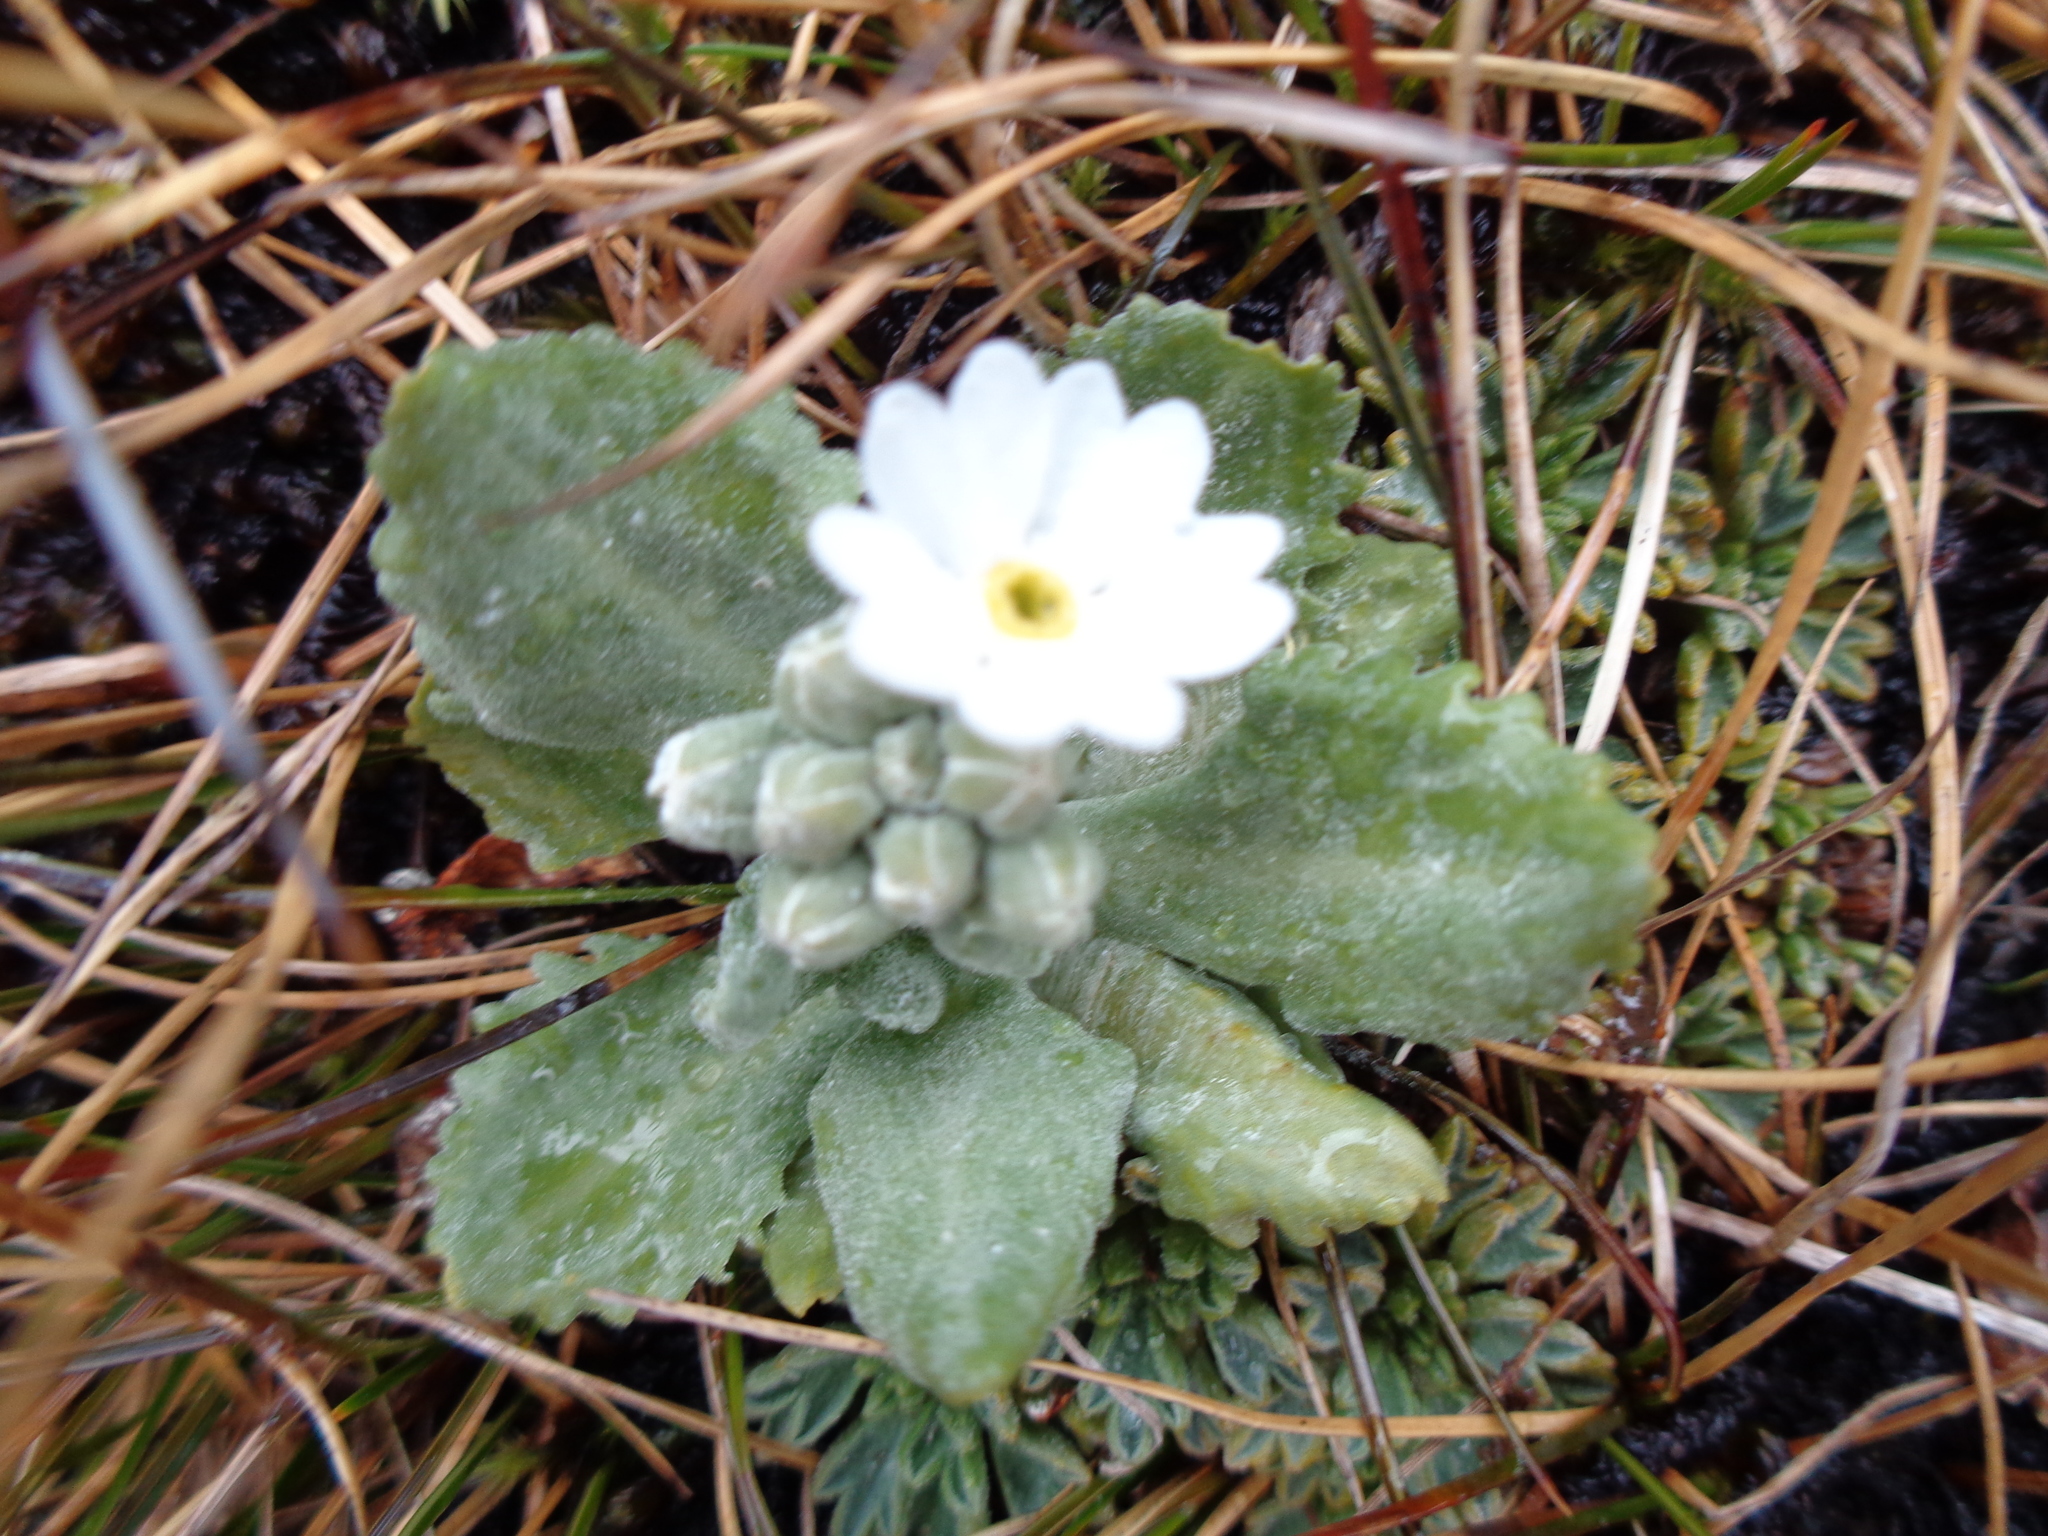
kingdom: Plantae
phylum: Tracheophyta
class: Magnoliopsida
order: Ericales
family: Primulaceae
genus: Primula
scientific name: Primula magellanica
